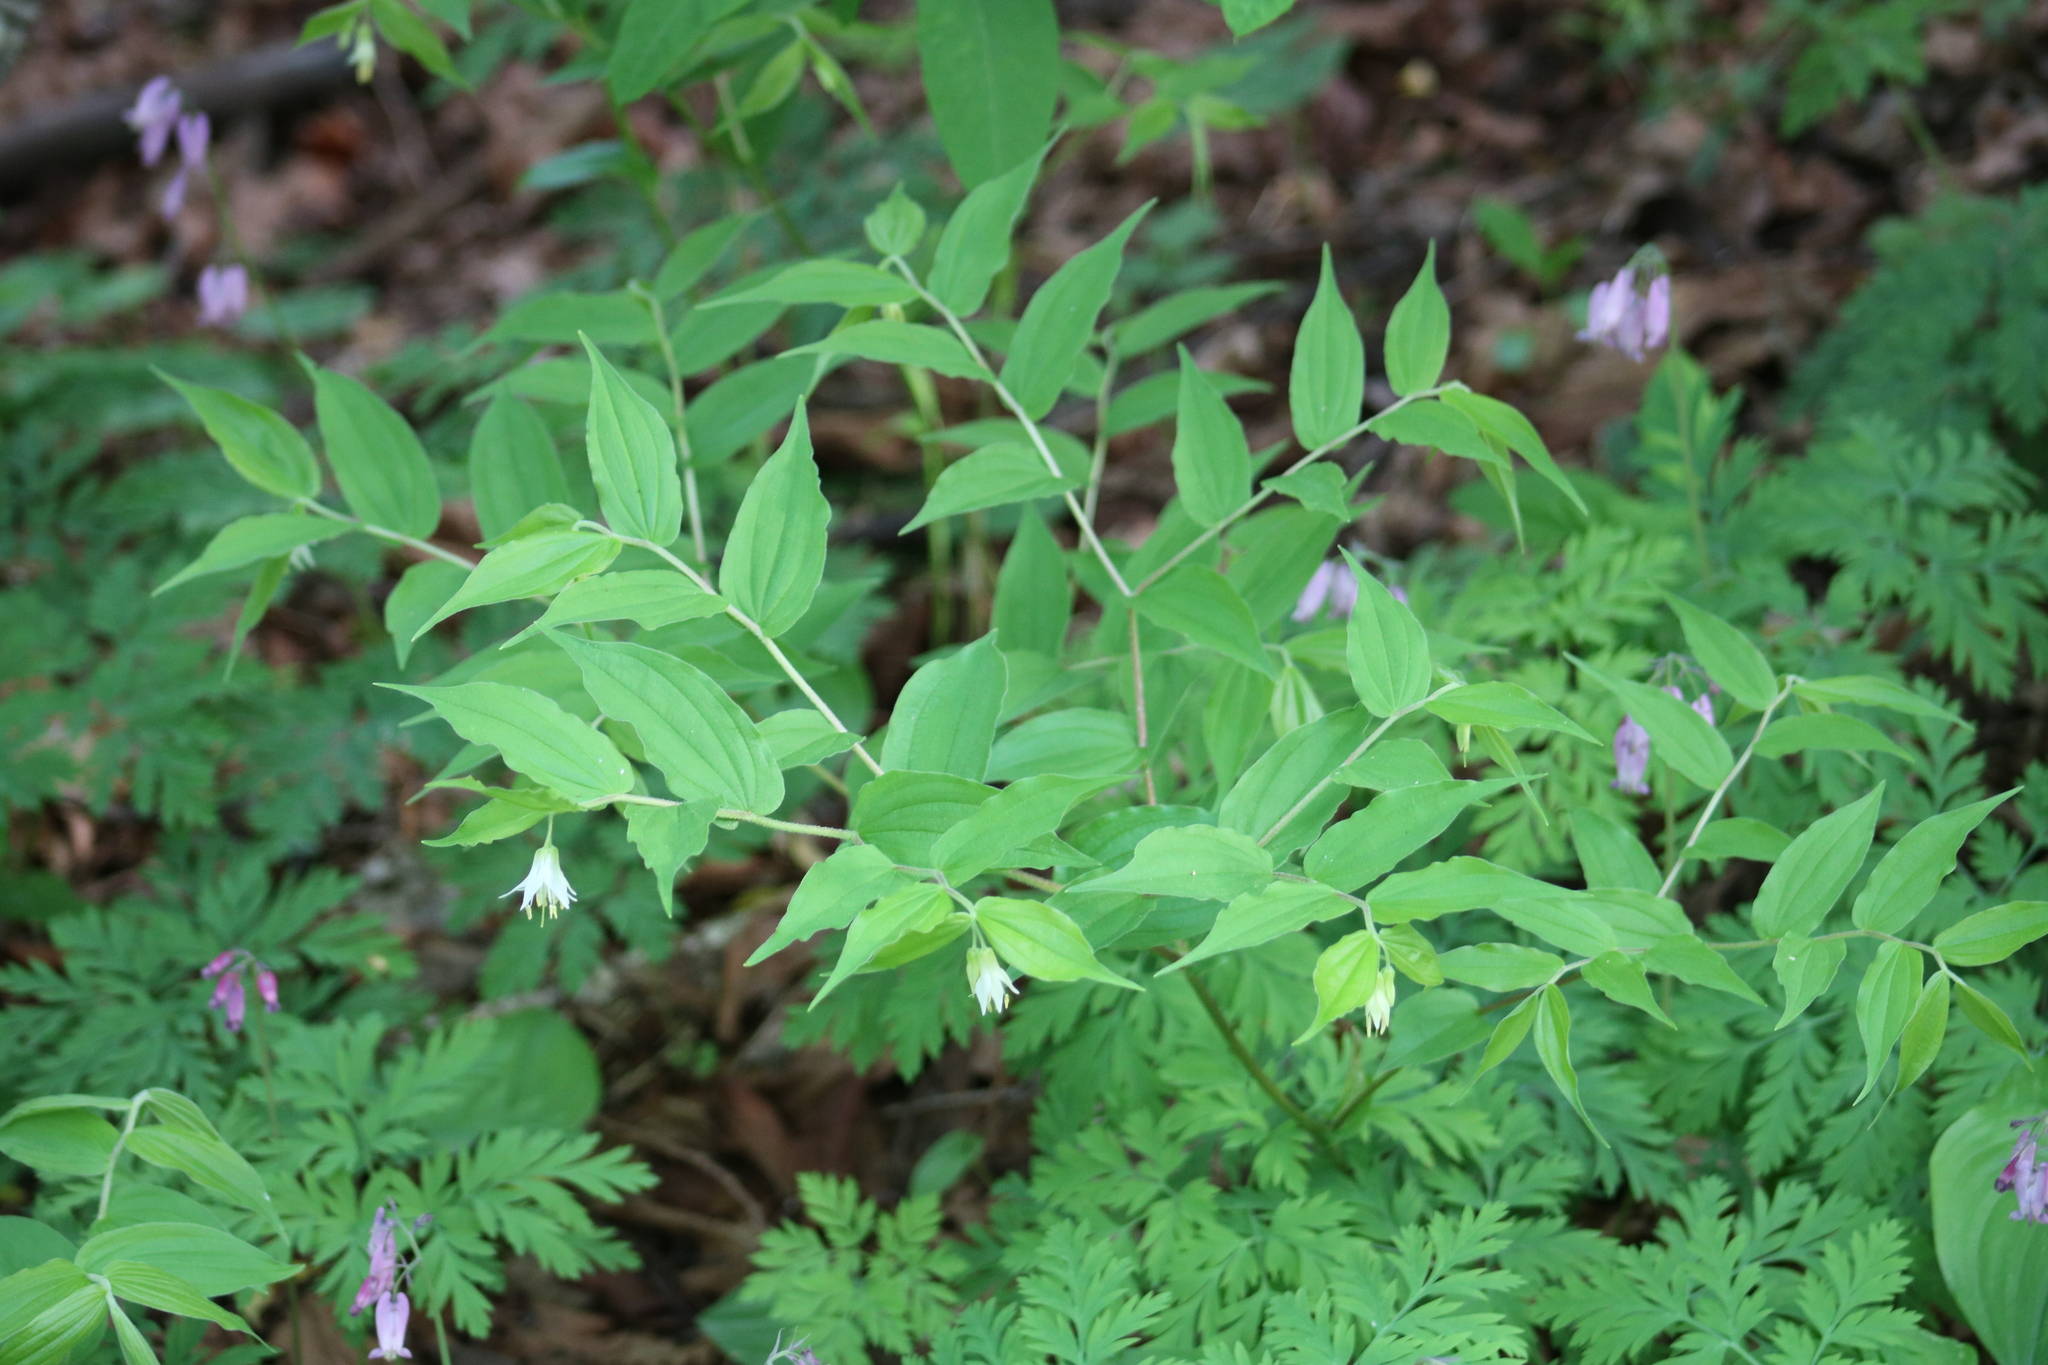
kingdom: Plantae
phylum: Tracheophyta
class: Liliopsida
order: Liliales
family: Liliaceae
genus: Prosartes
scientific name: Prosartes hookeri
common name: Fairy-bells
